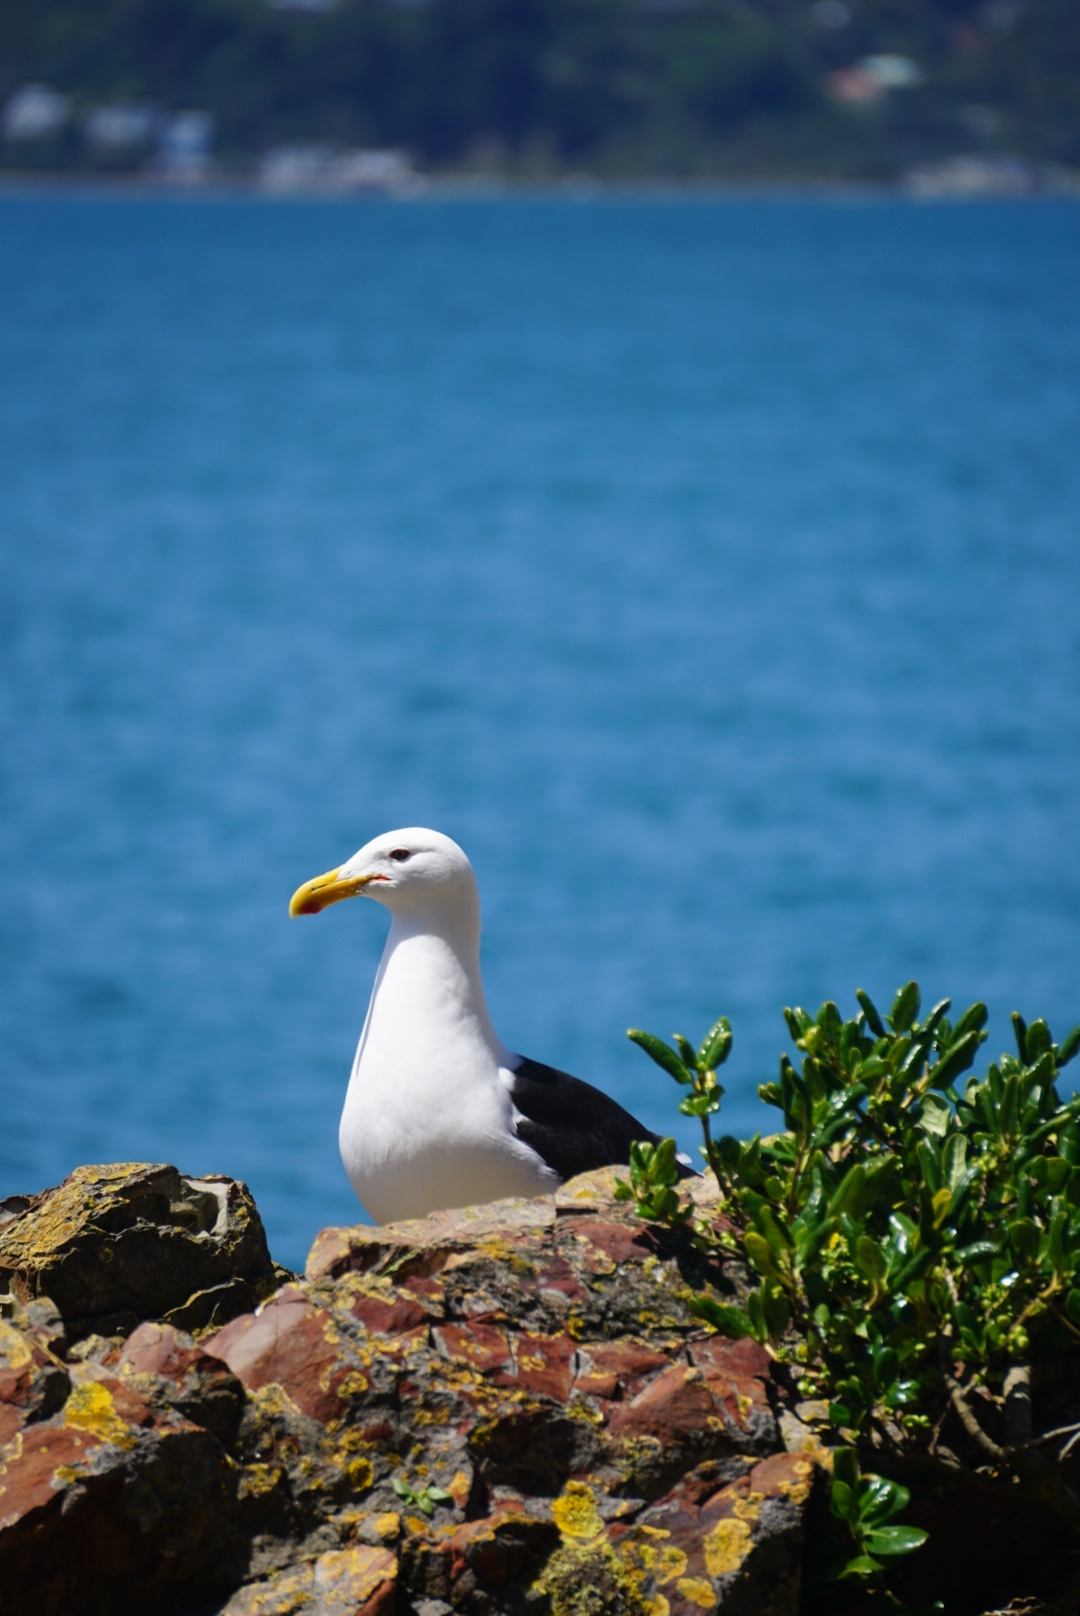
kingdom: Animalia
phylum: Chordata
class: Aves
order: Charadriiformes
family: Laridae
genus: Larus
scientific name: Larus dominicanus
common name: Kelp gull
